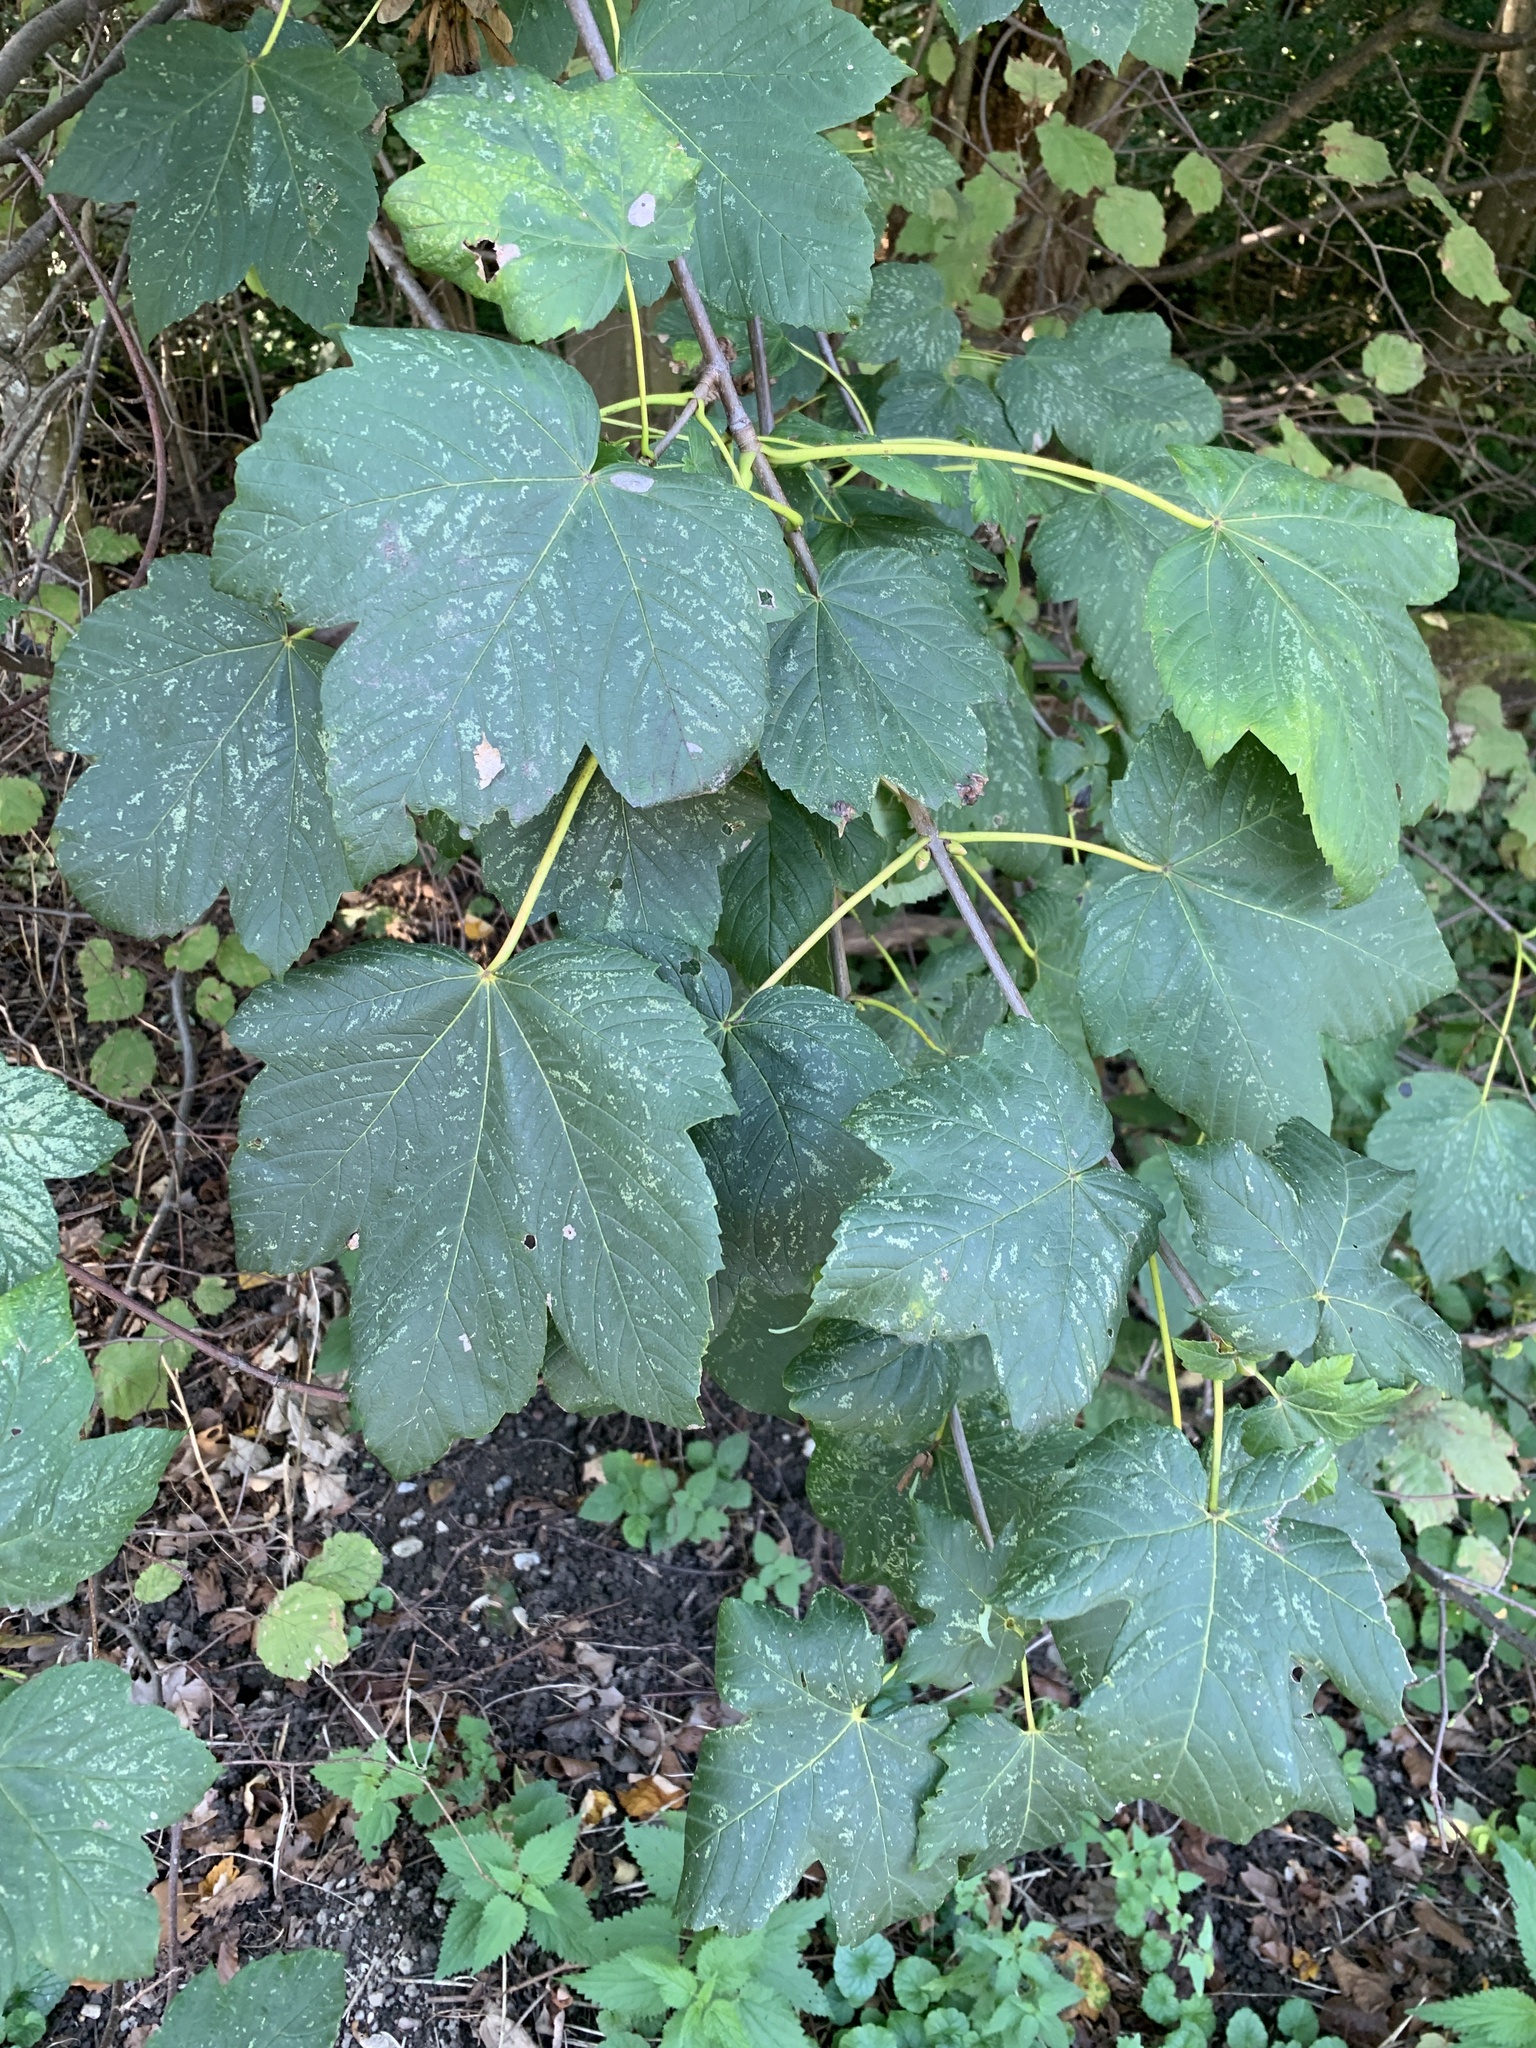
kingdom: Plantae
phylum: Tracheophyta
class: Magnoliopsida
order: Sapindales
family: Sapindaceae
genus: Acer
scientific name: Acer pseudoplatanus
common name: Sycamore
